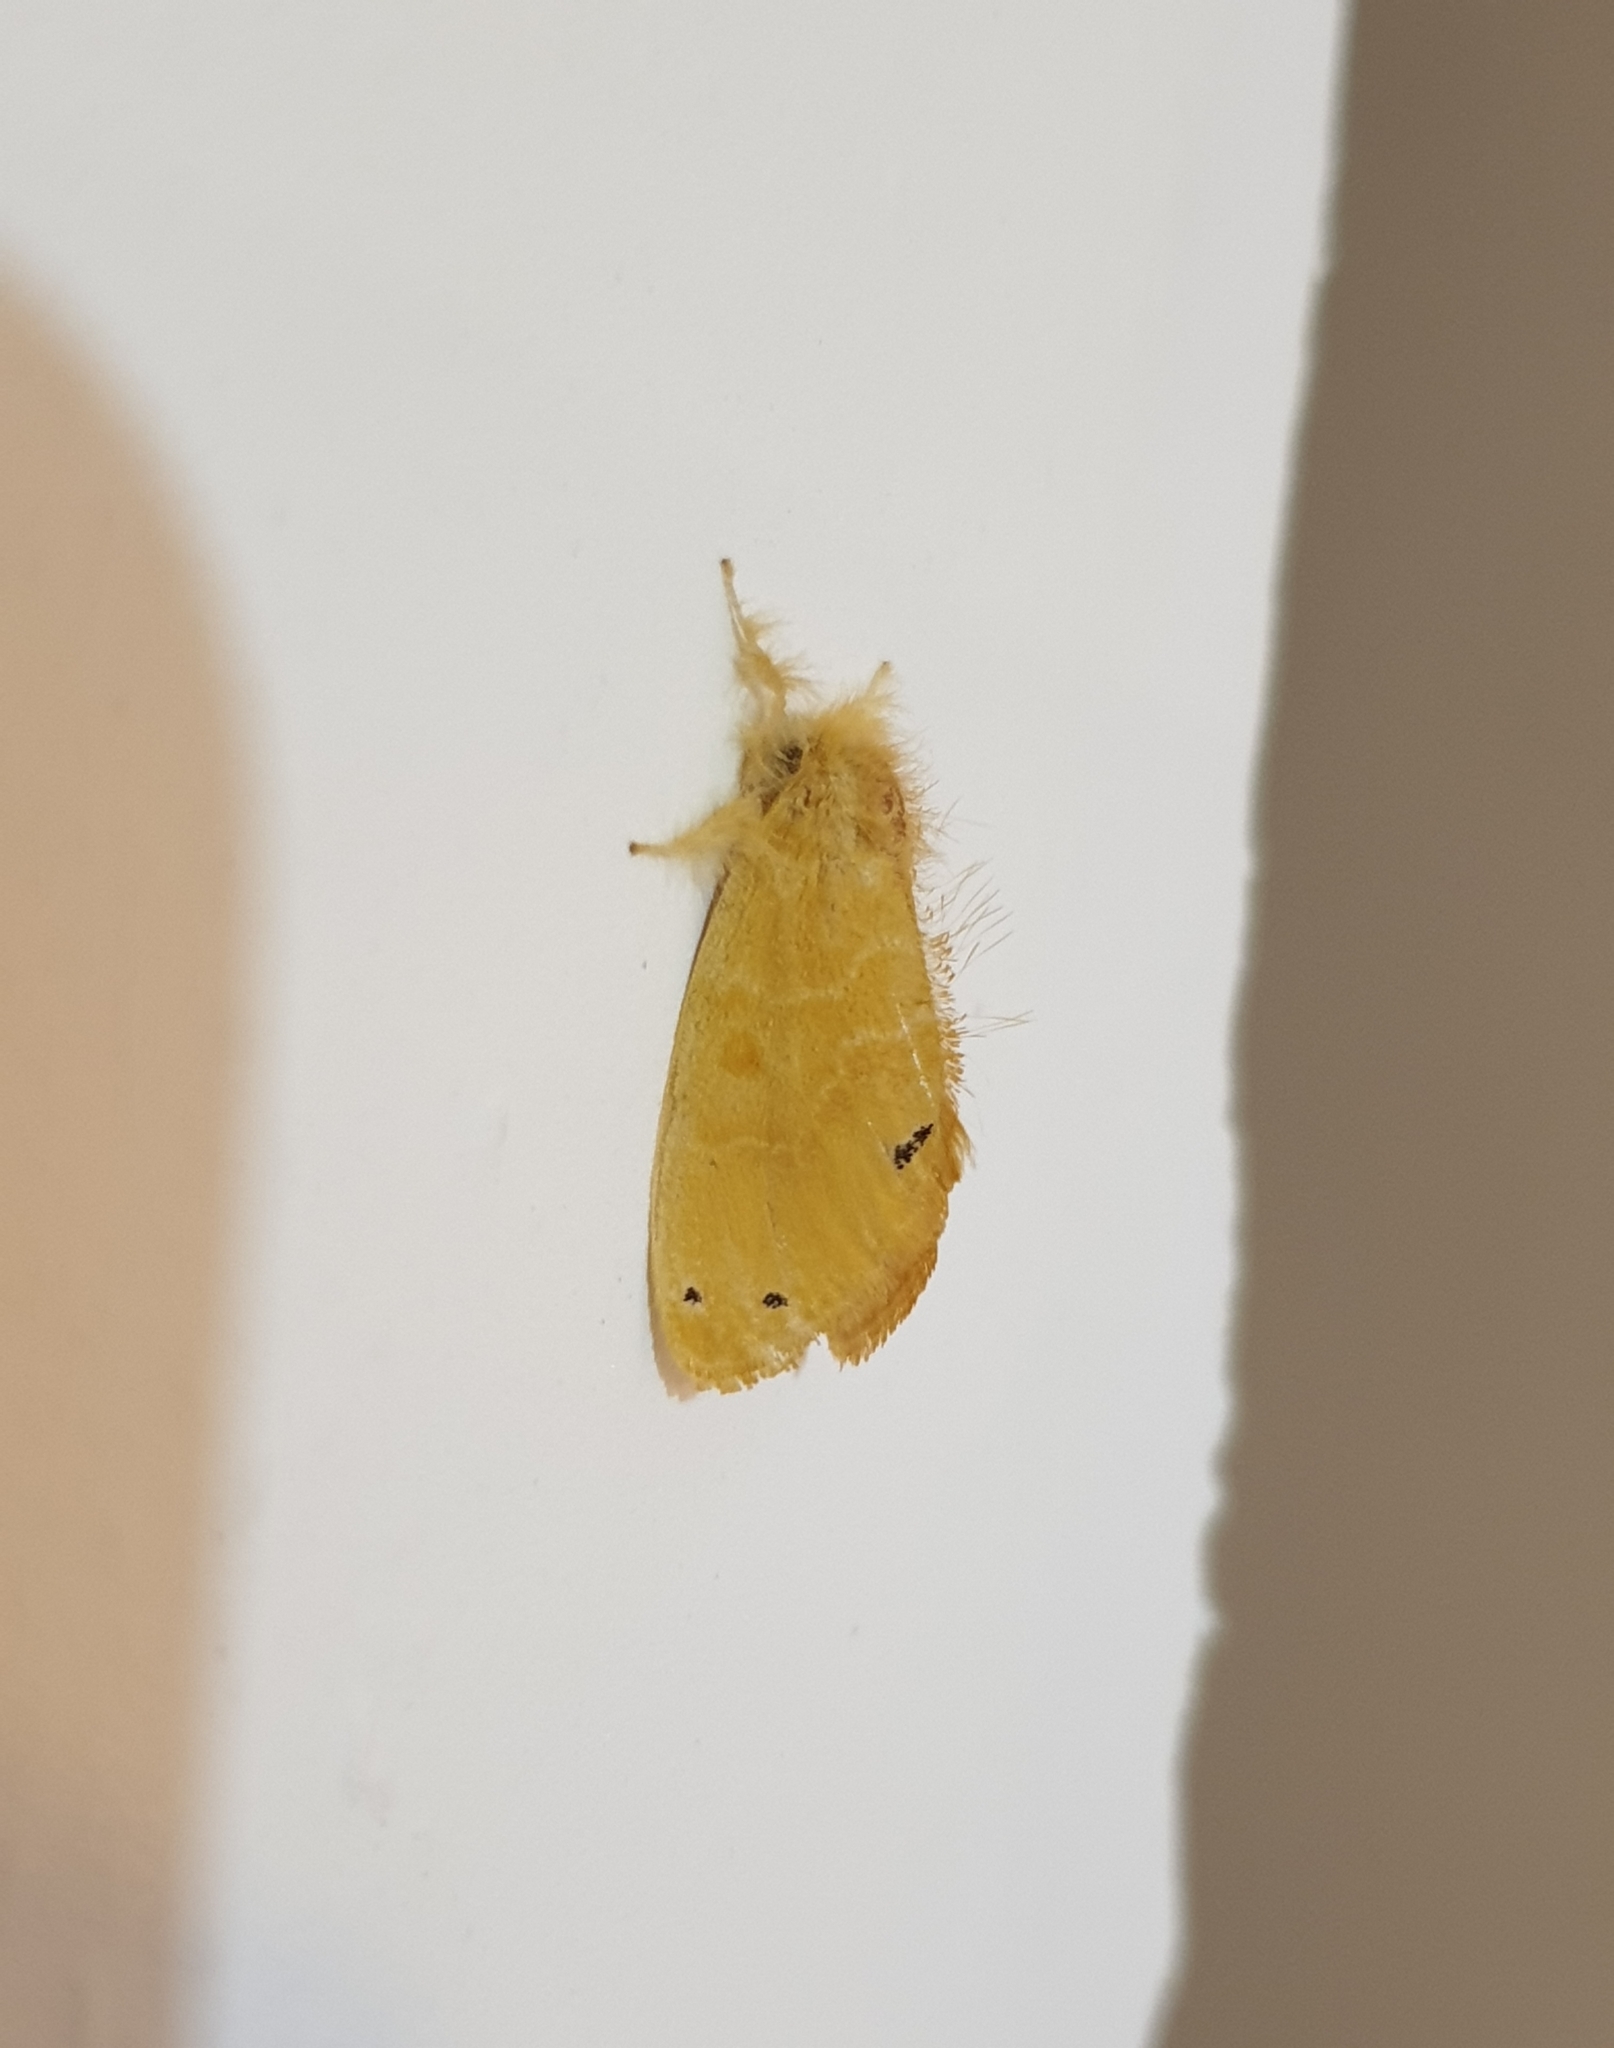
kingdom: Animalia
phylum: Arthropoda
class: Insecta
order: Lepidoptera
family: Erebidae
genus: Artaxa
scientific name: Artaxa guttata
